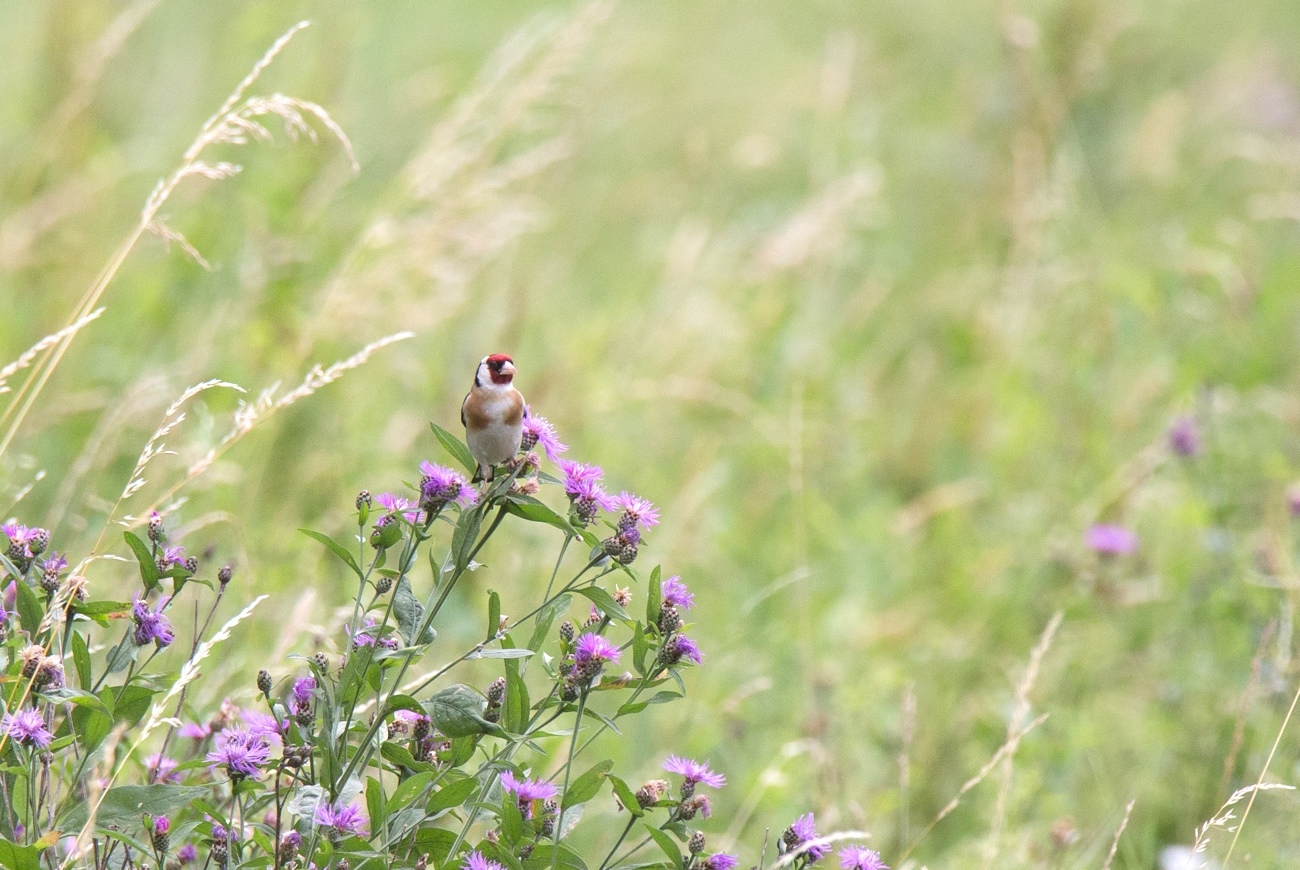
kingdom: Animalia
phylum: Chordata
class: Aves
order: Passeriformes
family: Fringillidae
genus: Carduelis
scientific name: Carduelis carduelis
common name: European goldfinch
